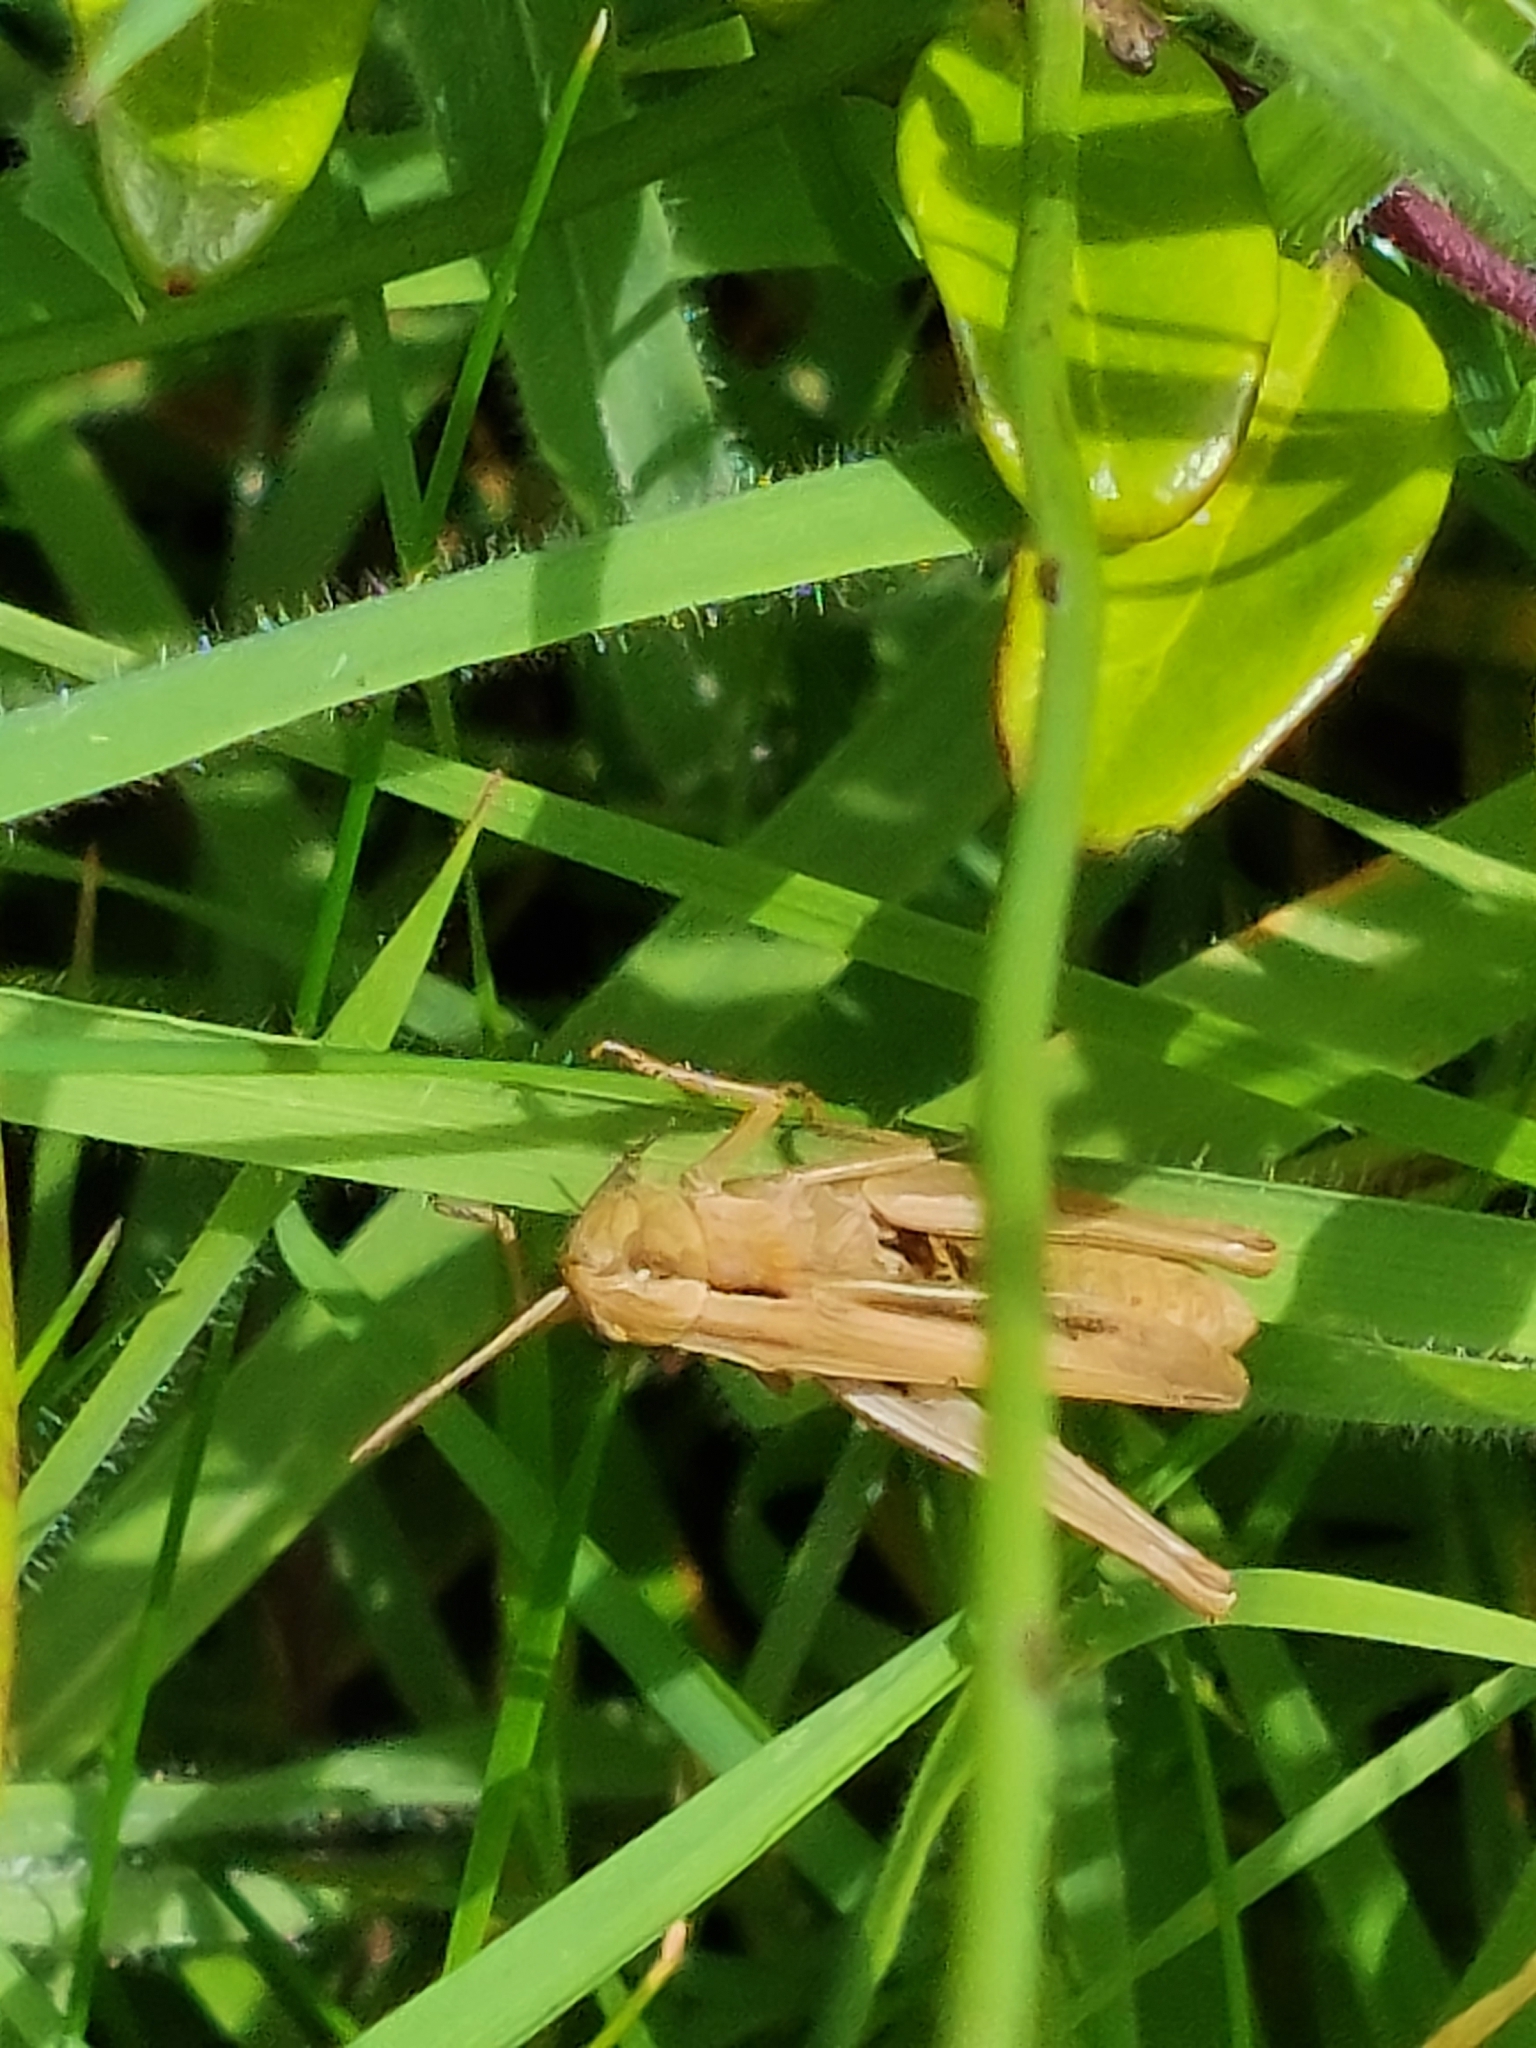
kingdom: Animalia
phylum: Arthropoda
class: Insecta
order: Orthoptera
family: Acrididae
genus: Chorthippus
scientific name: Chorthippus albomarginatus
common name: Lesser marsh grasshopper
